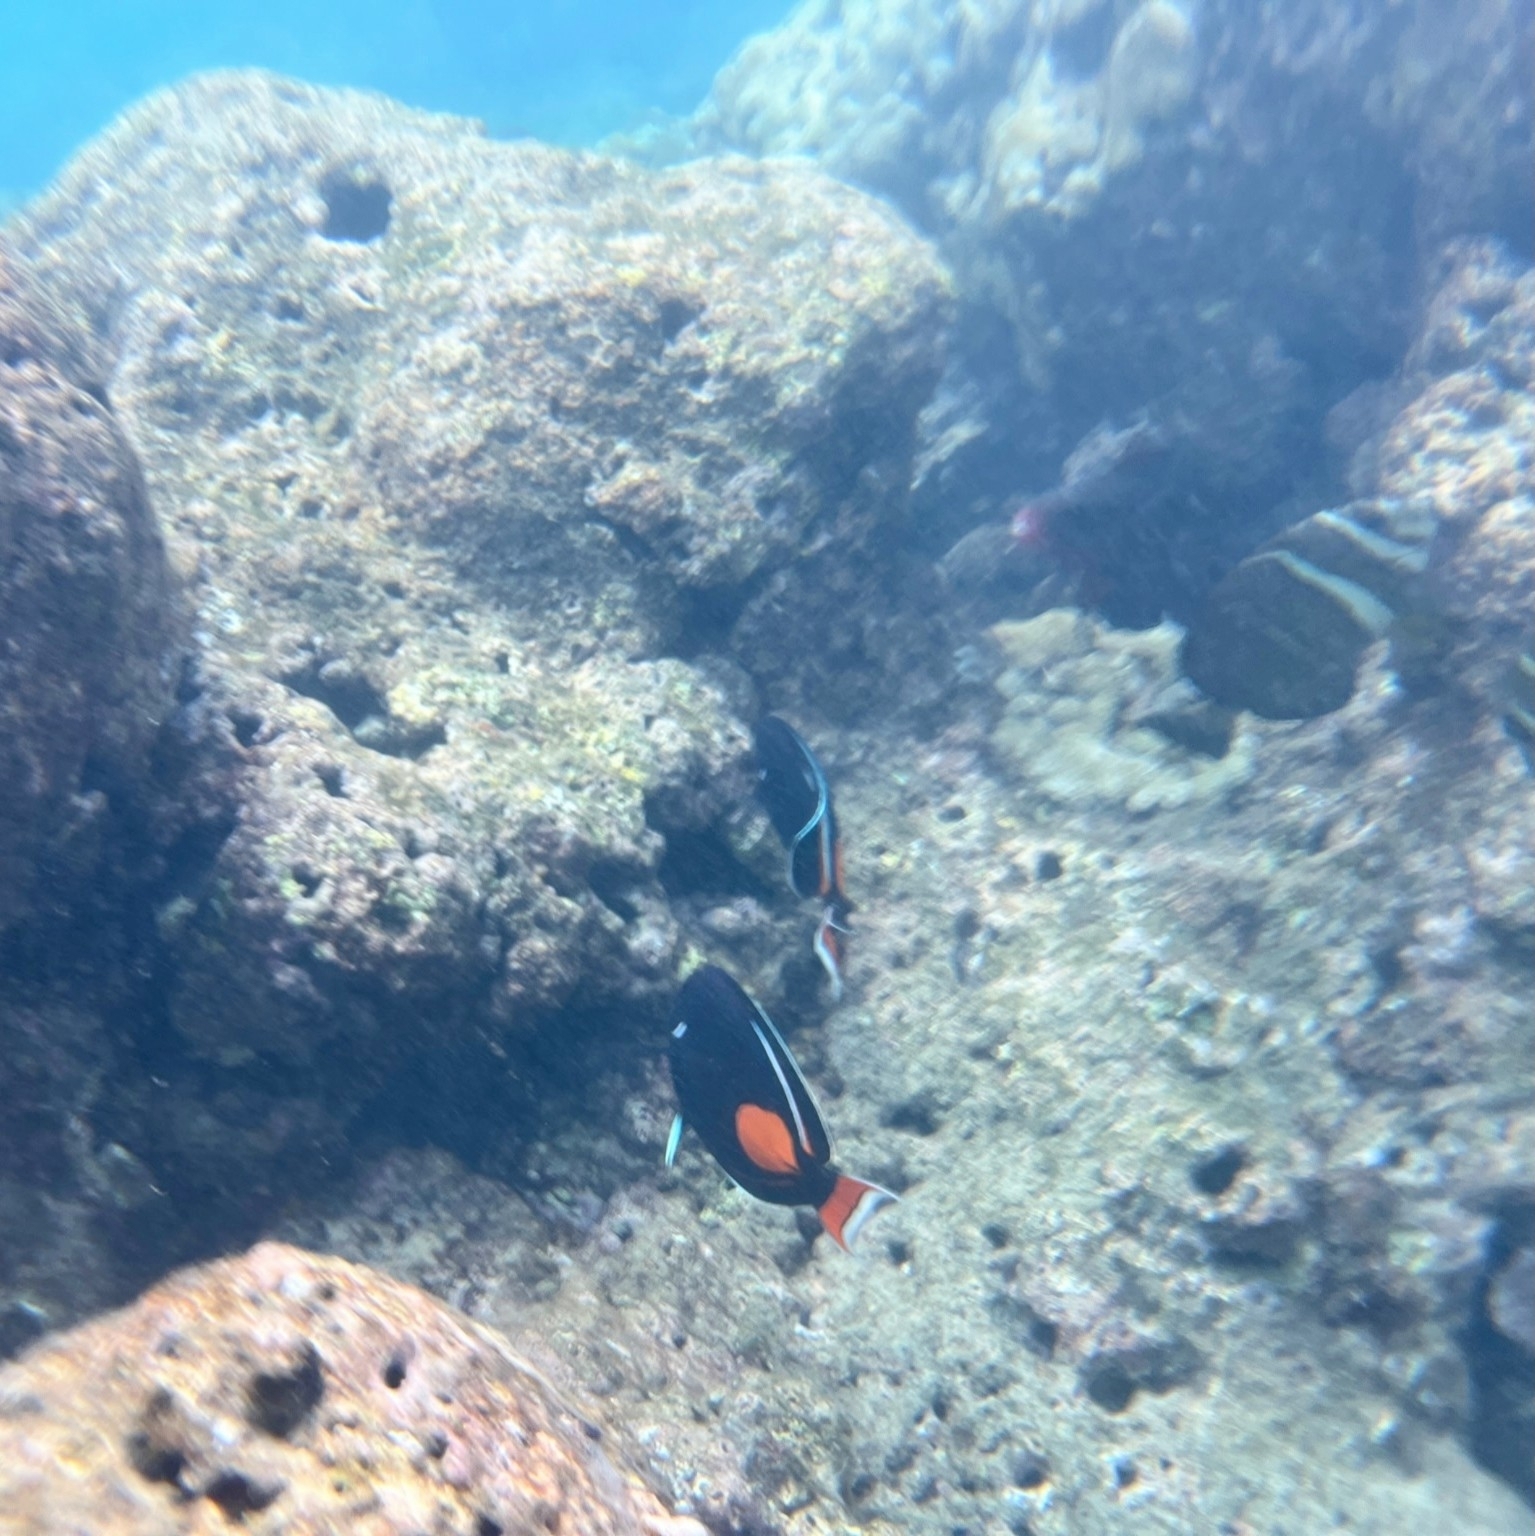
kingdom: Animalia
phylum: Chordata
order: Perciformes
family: Acanthuridae
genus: Acanthurus
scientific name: Acanthurus achilles
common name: Achilles tang
